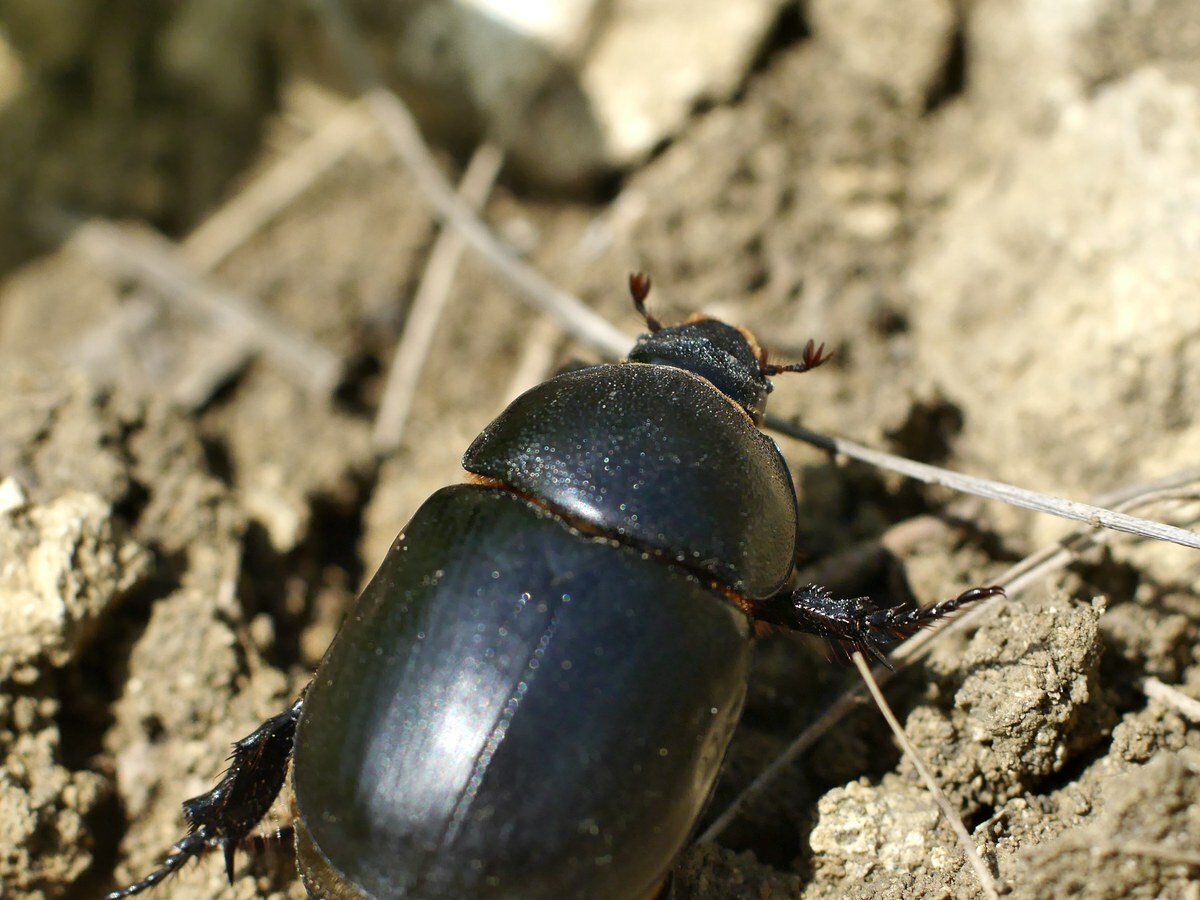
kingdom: Animalia
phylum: Arthropoda
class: Insecta
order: Coleoptera
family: Scarabaeidae
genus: Pentodon
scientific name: Pentodon idiota
